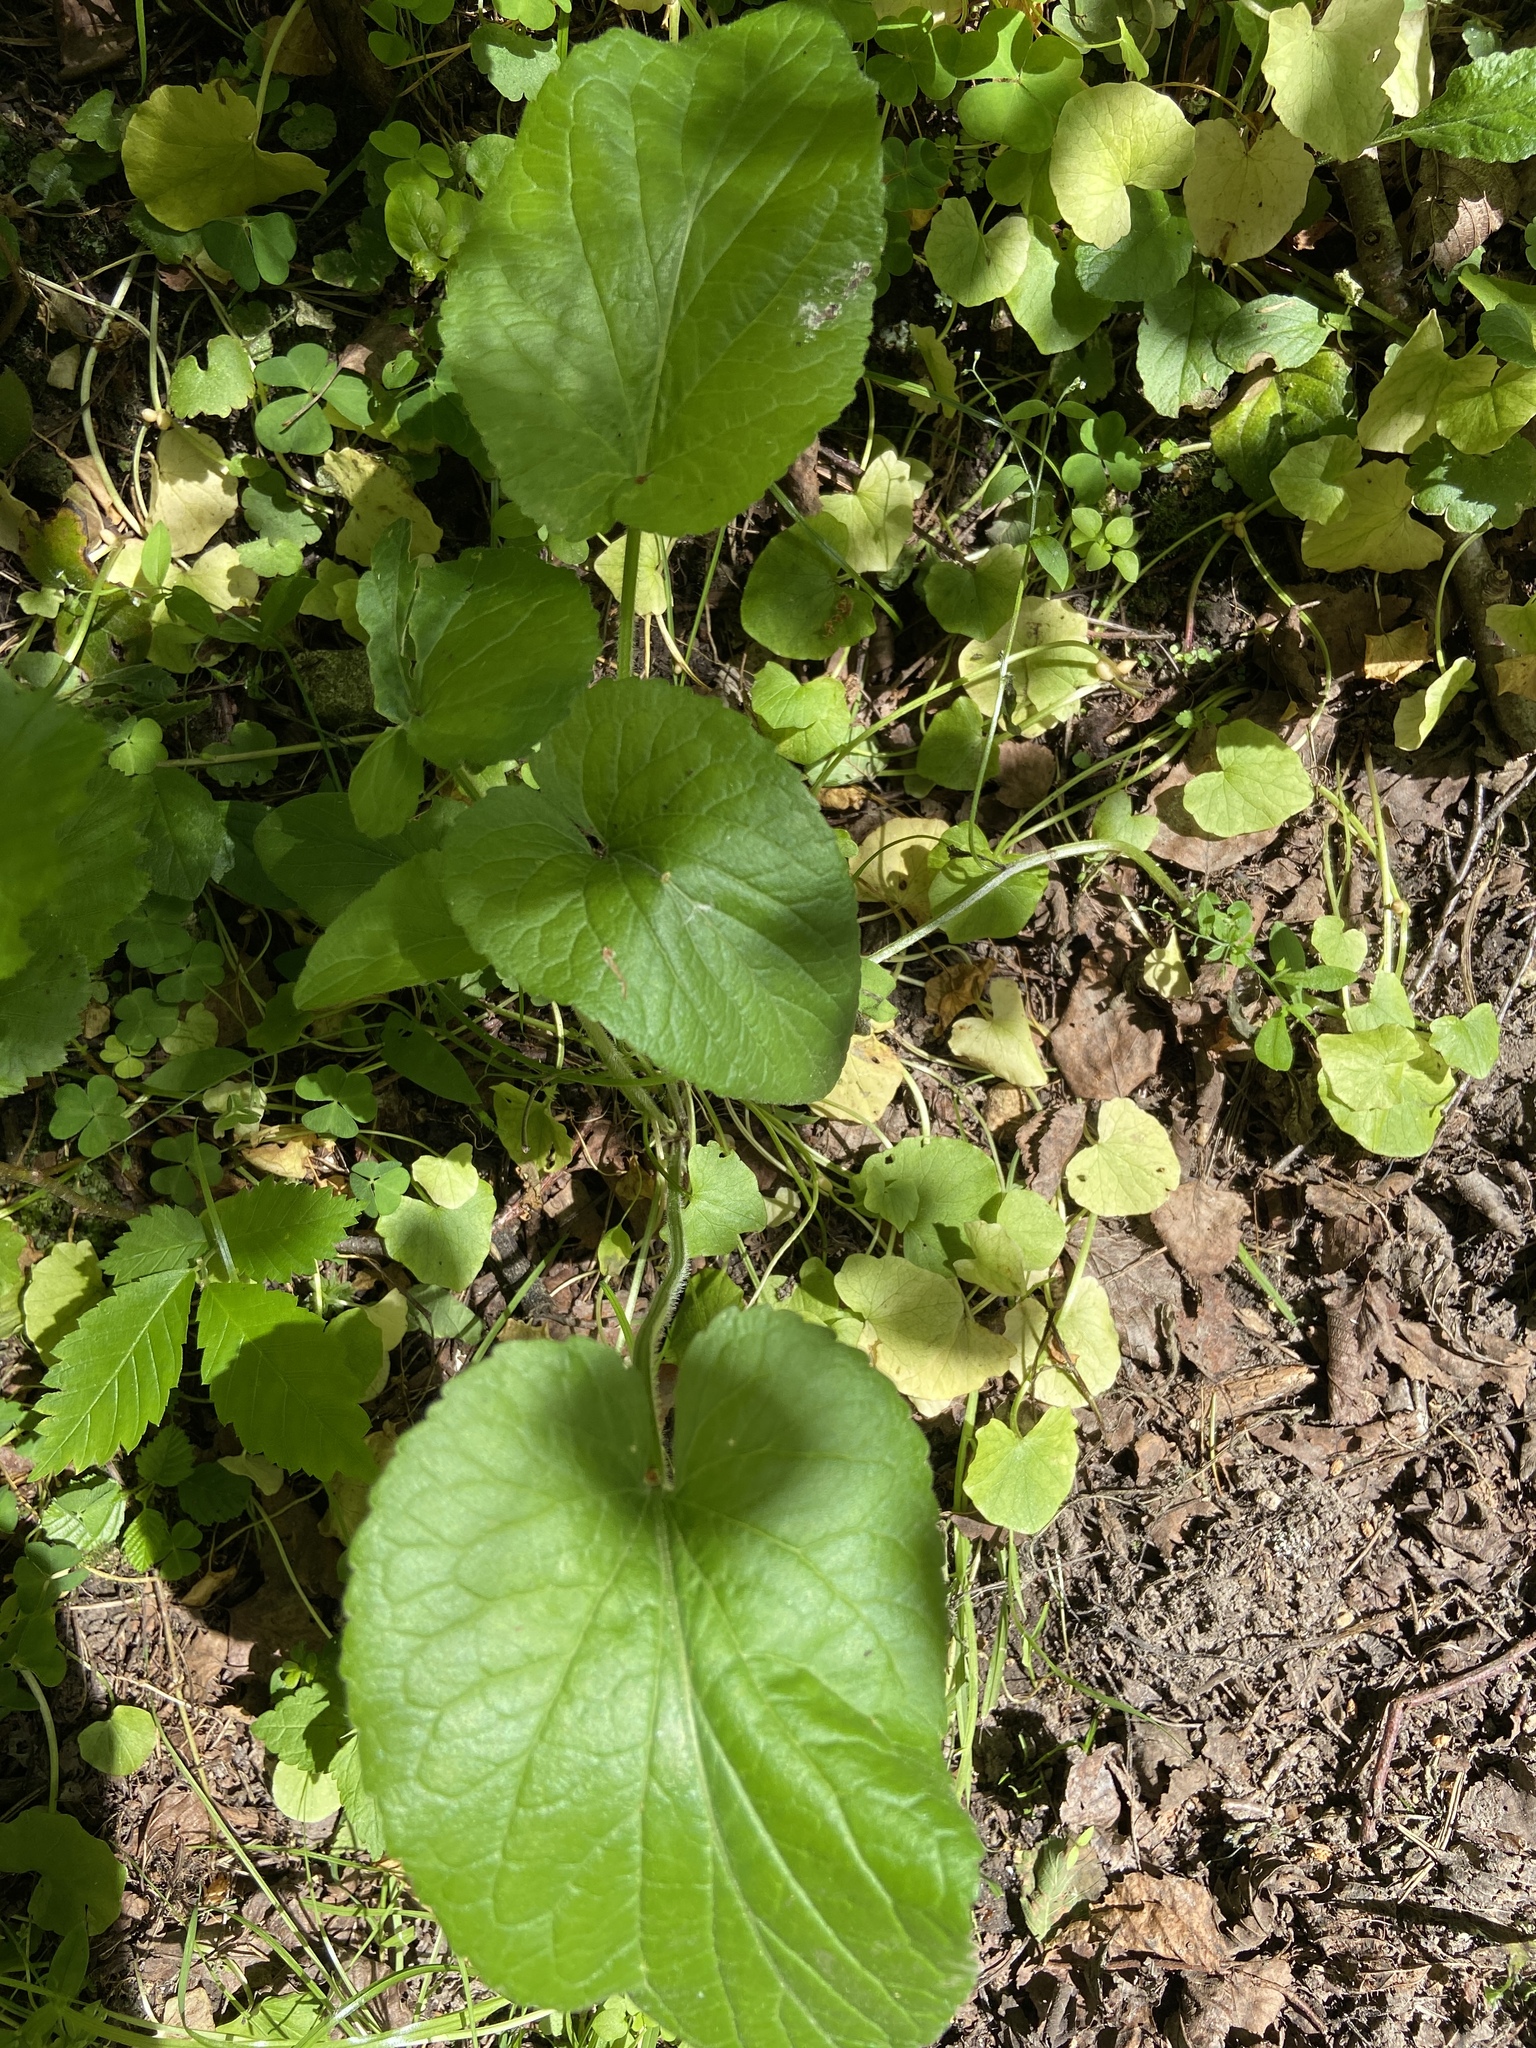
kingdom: Plantae
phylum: Tracheophyta
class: Magnoliopsida
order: Malpighiales
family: Violaceae
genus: Viola
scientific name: Viola hirta
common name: Hairy violet
